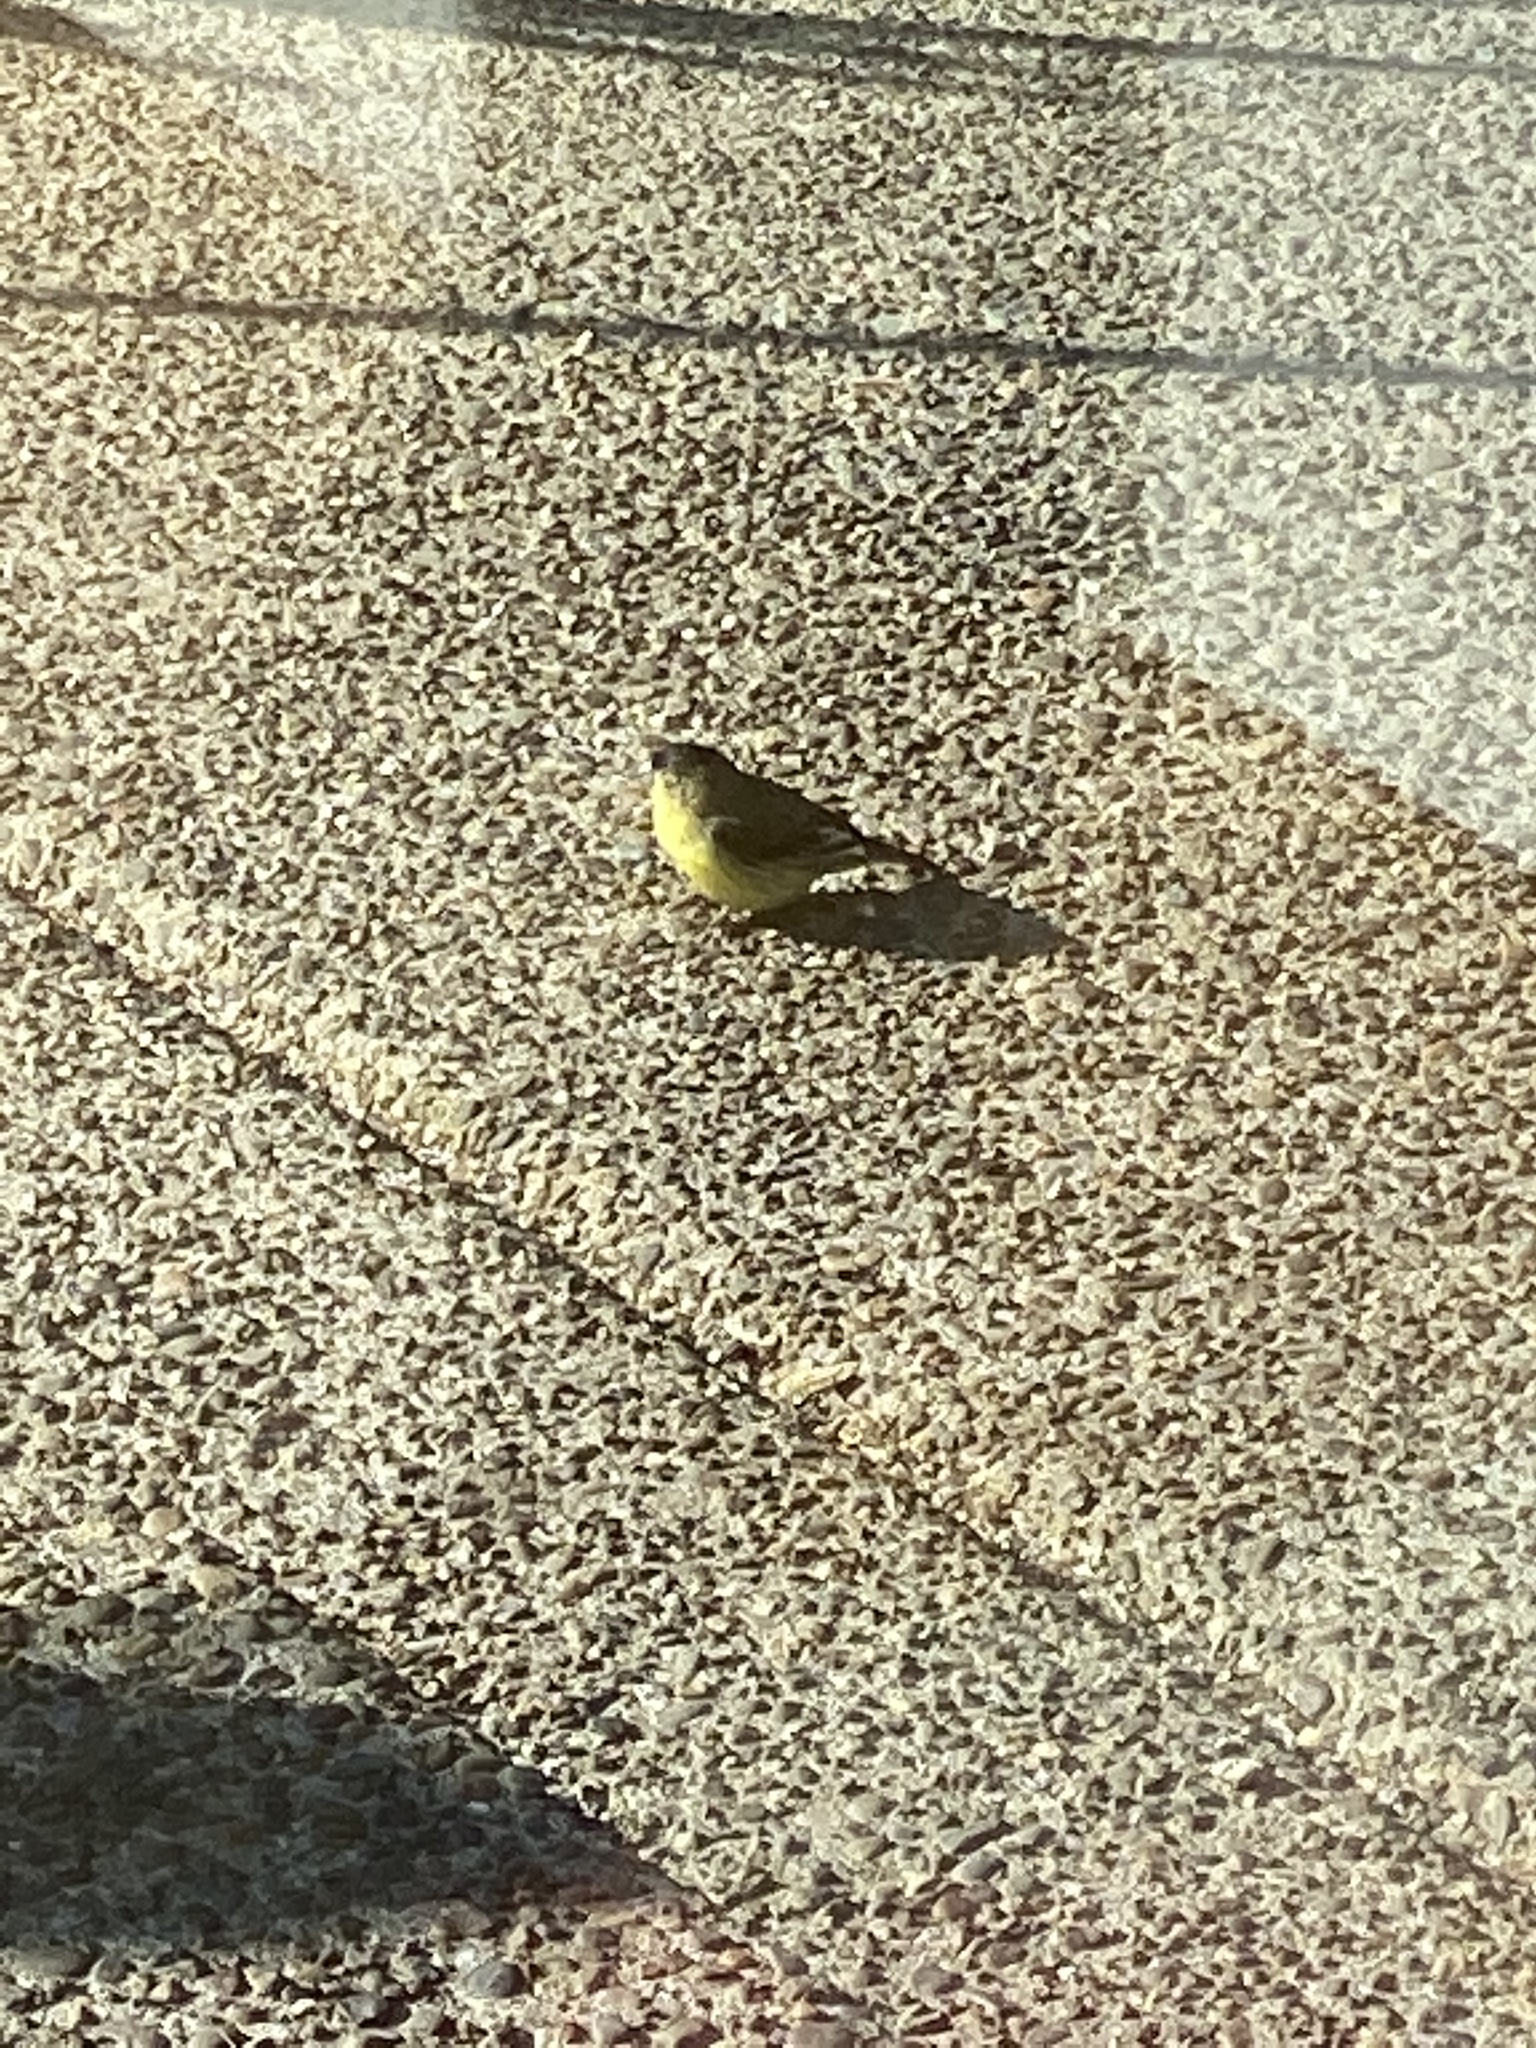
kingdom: Animalia
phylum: Chordata
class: Aves
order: Passeriformes
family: Fringillidae
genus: Spinus
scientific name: Spinus psaltria
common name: Lesser goldfinch
